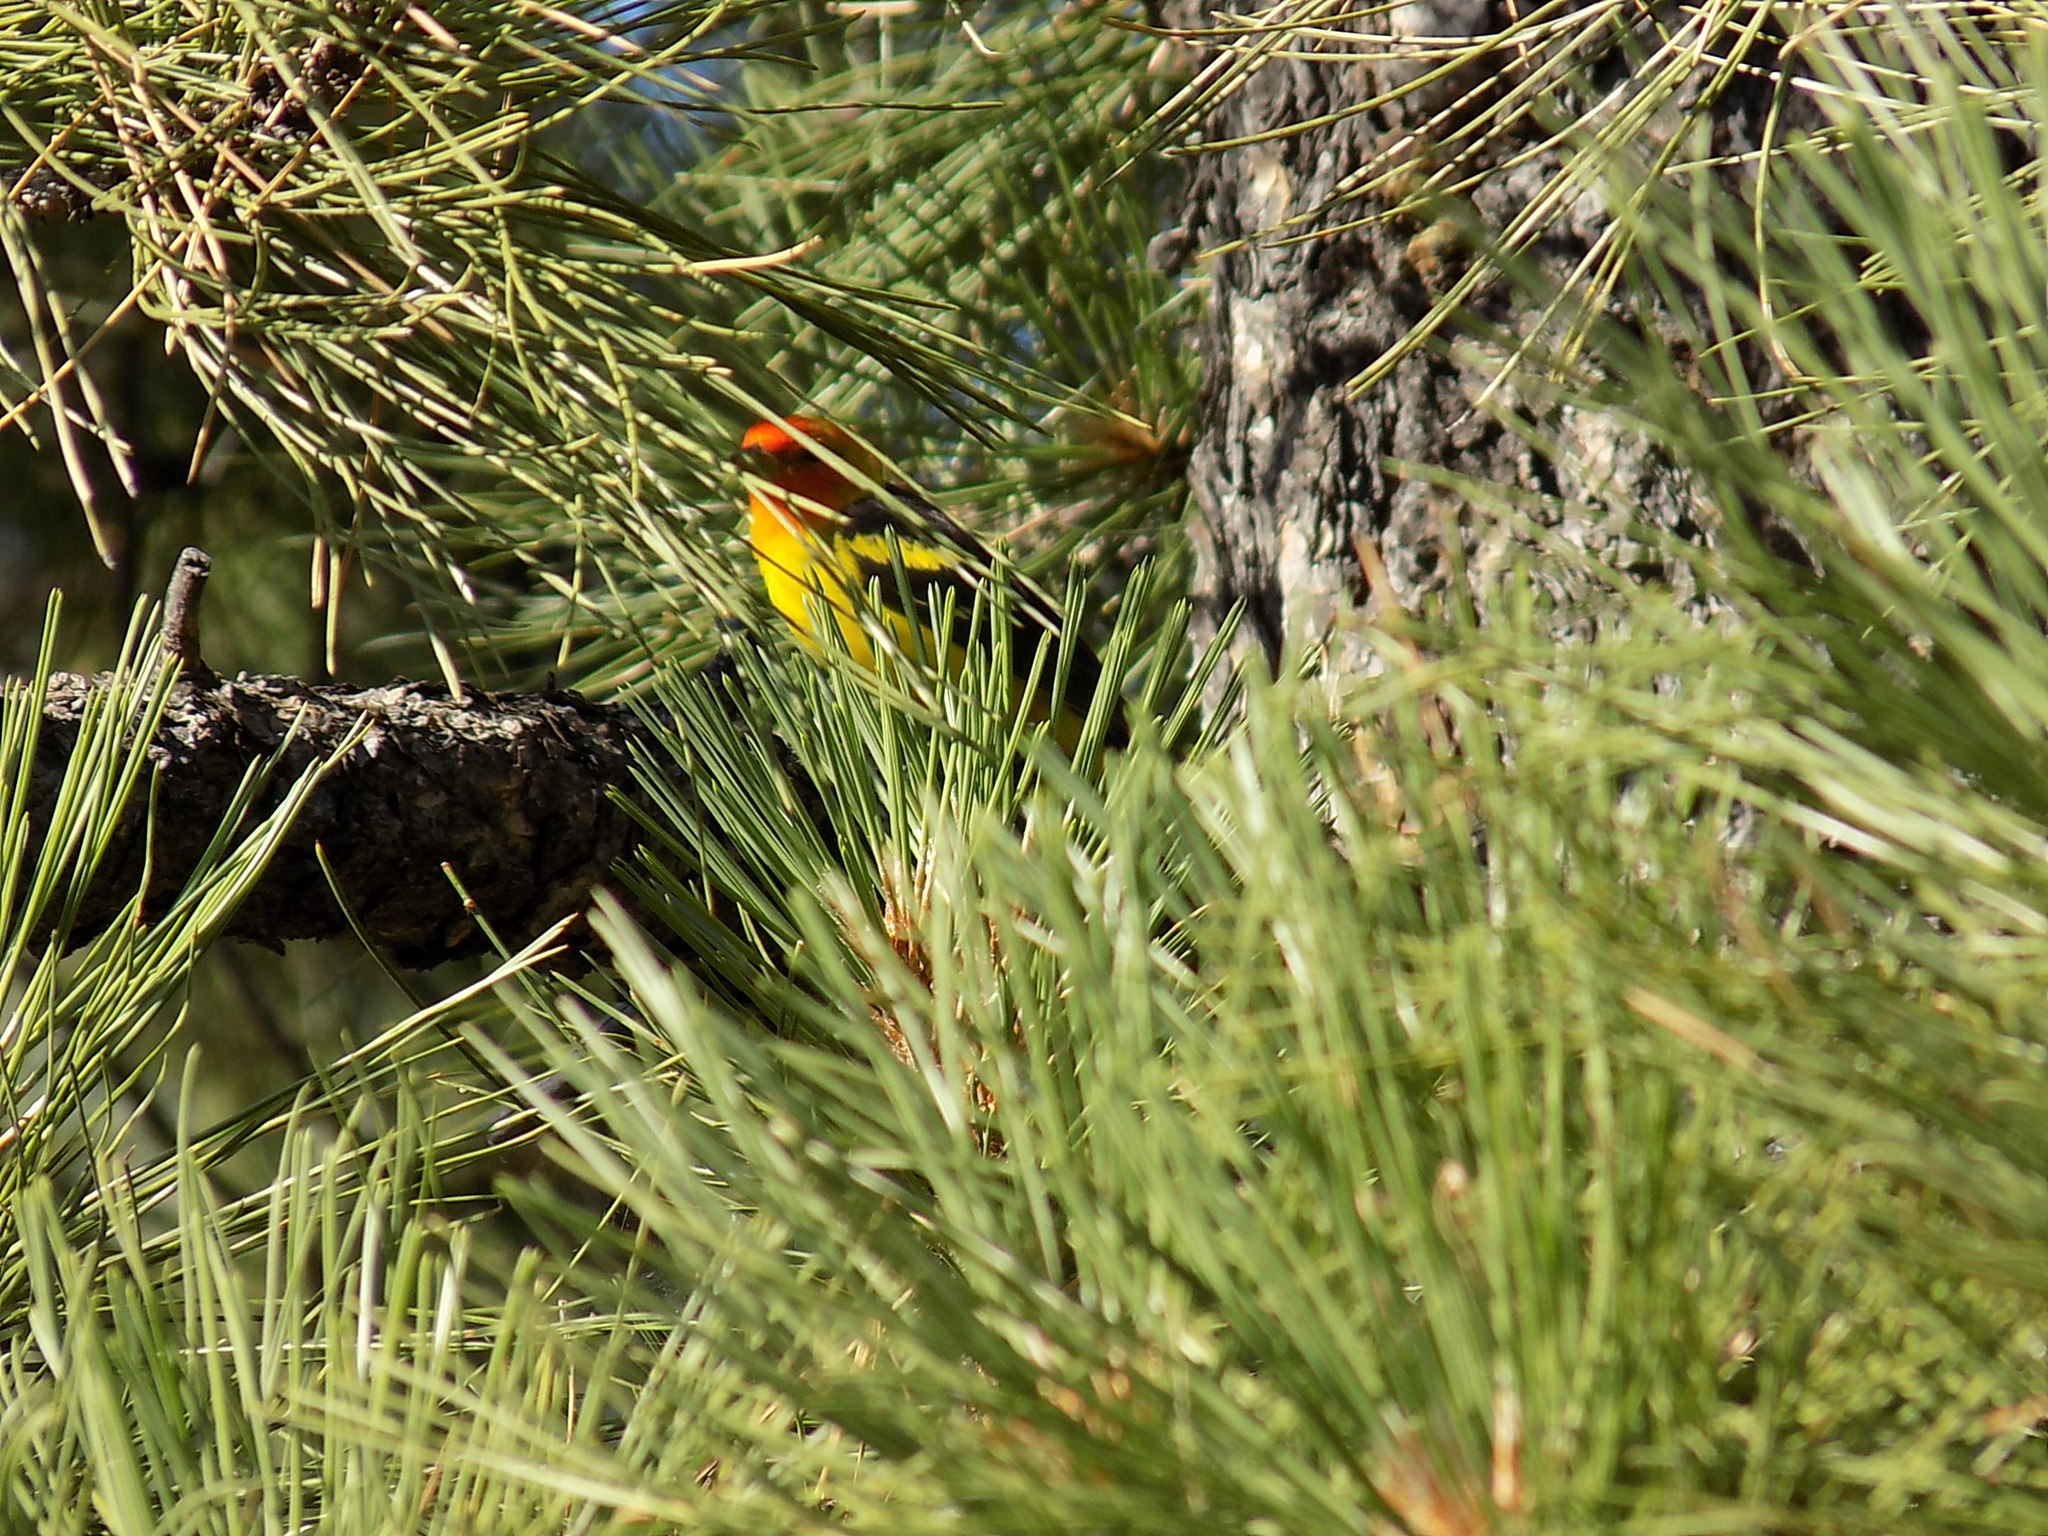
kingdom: Animalia
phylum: Chordata
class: Aves
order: Passeriformes
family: Cardinalidae
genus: Piranga
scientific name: Piranga ludoviciana
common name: Western tanager
